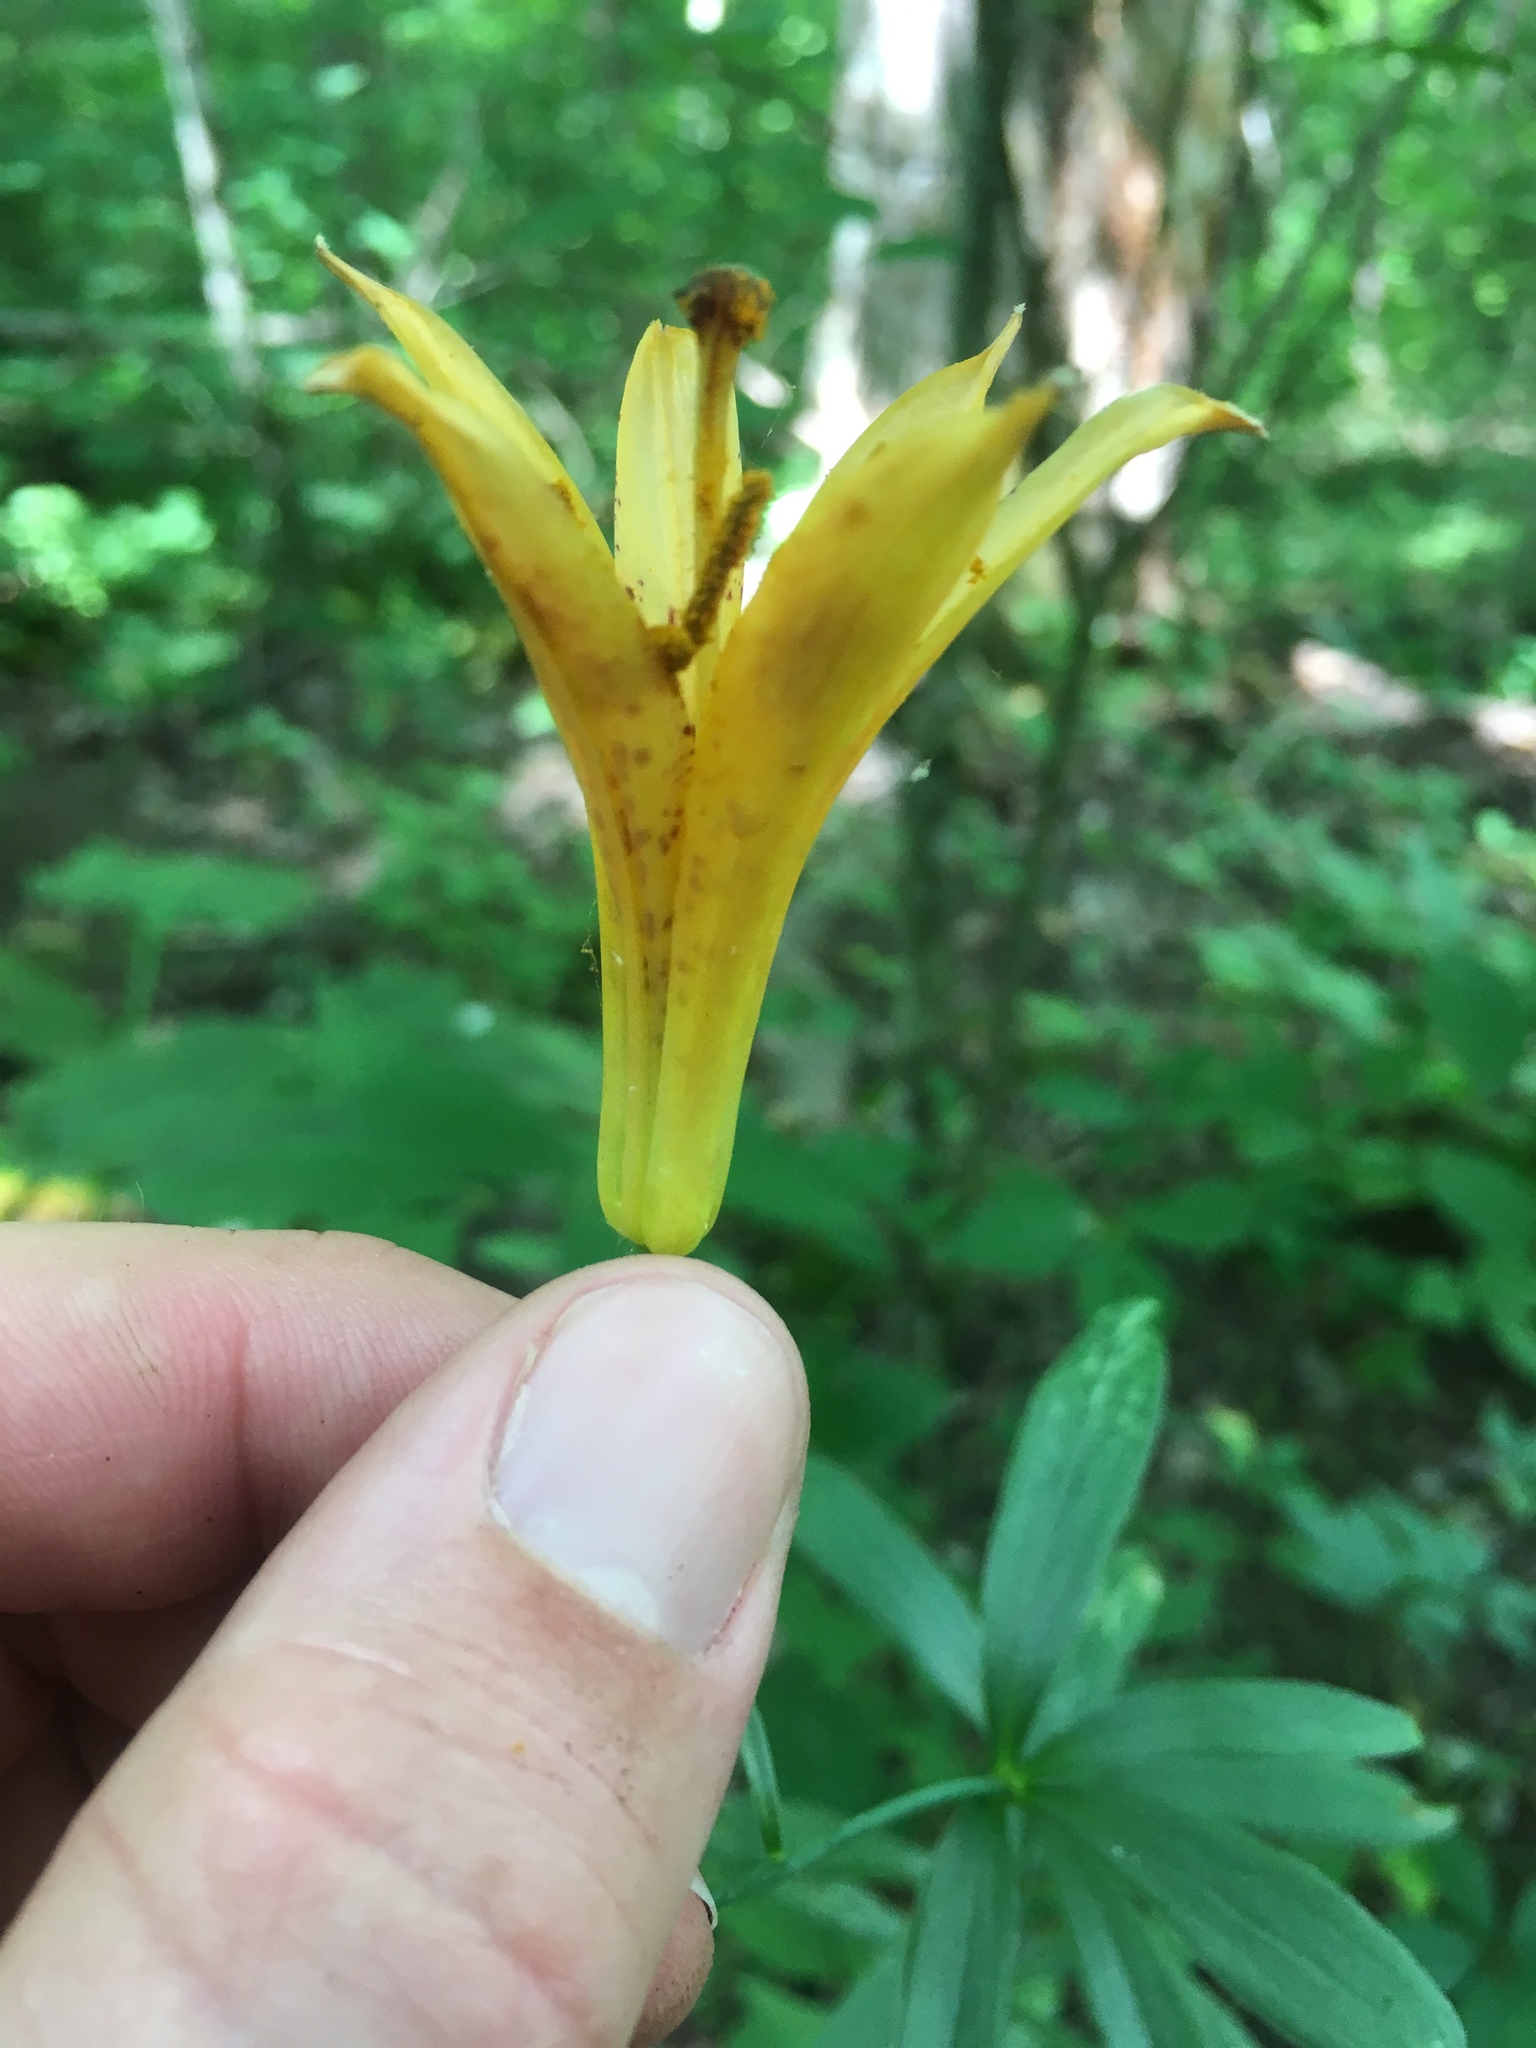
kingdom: Plantae
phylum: Tracheophyta
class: Liliopsida
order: Liliales
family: Liliaceae
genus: Lilium
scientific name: Lilium canadense
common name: Canada lily
